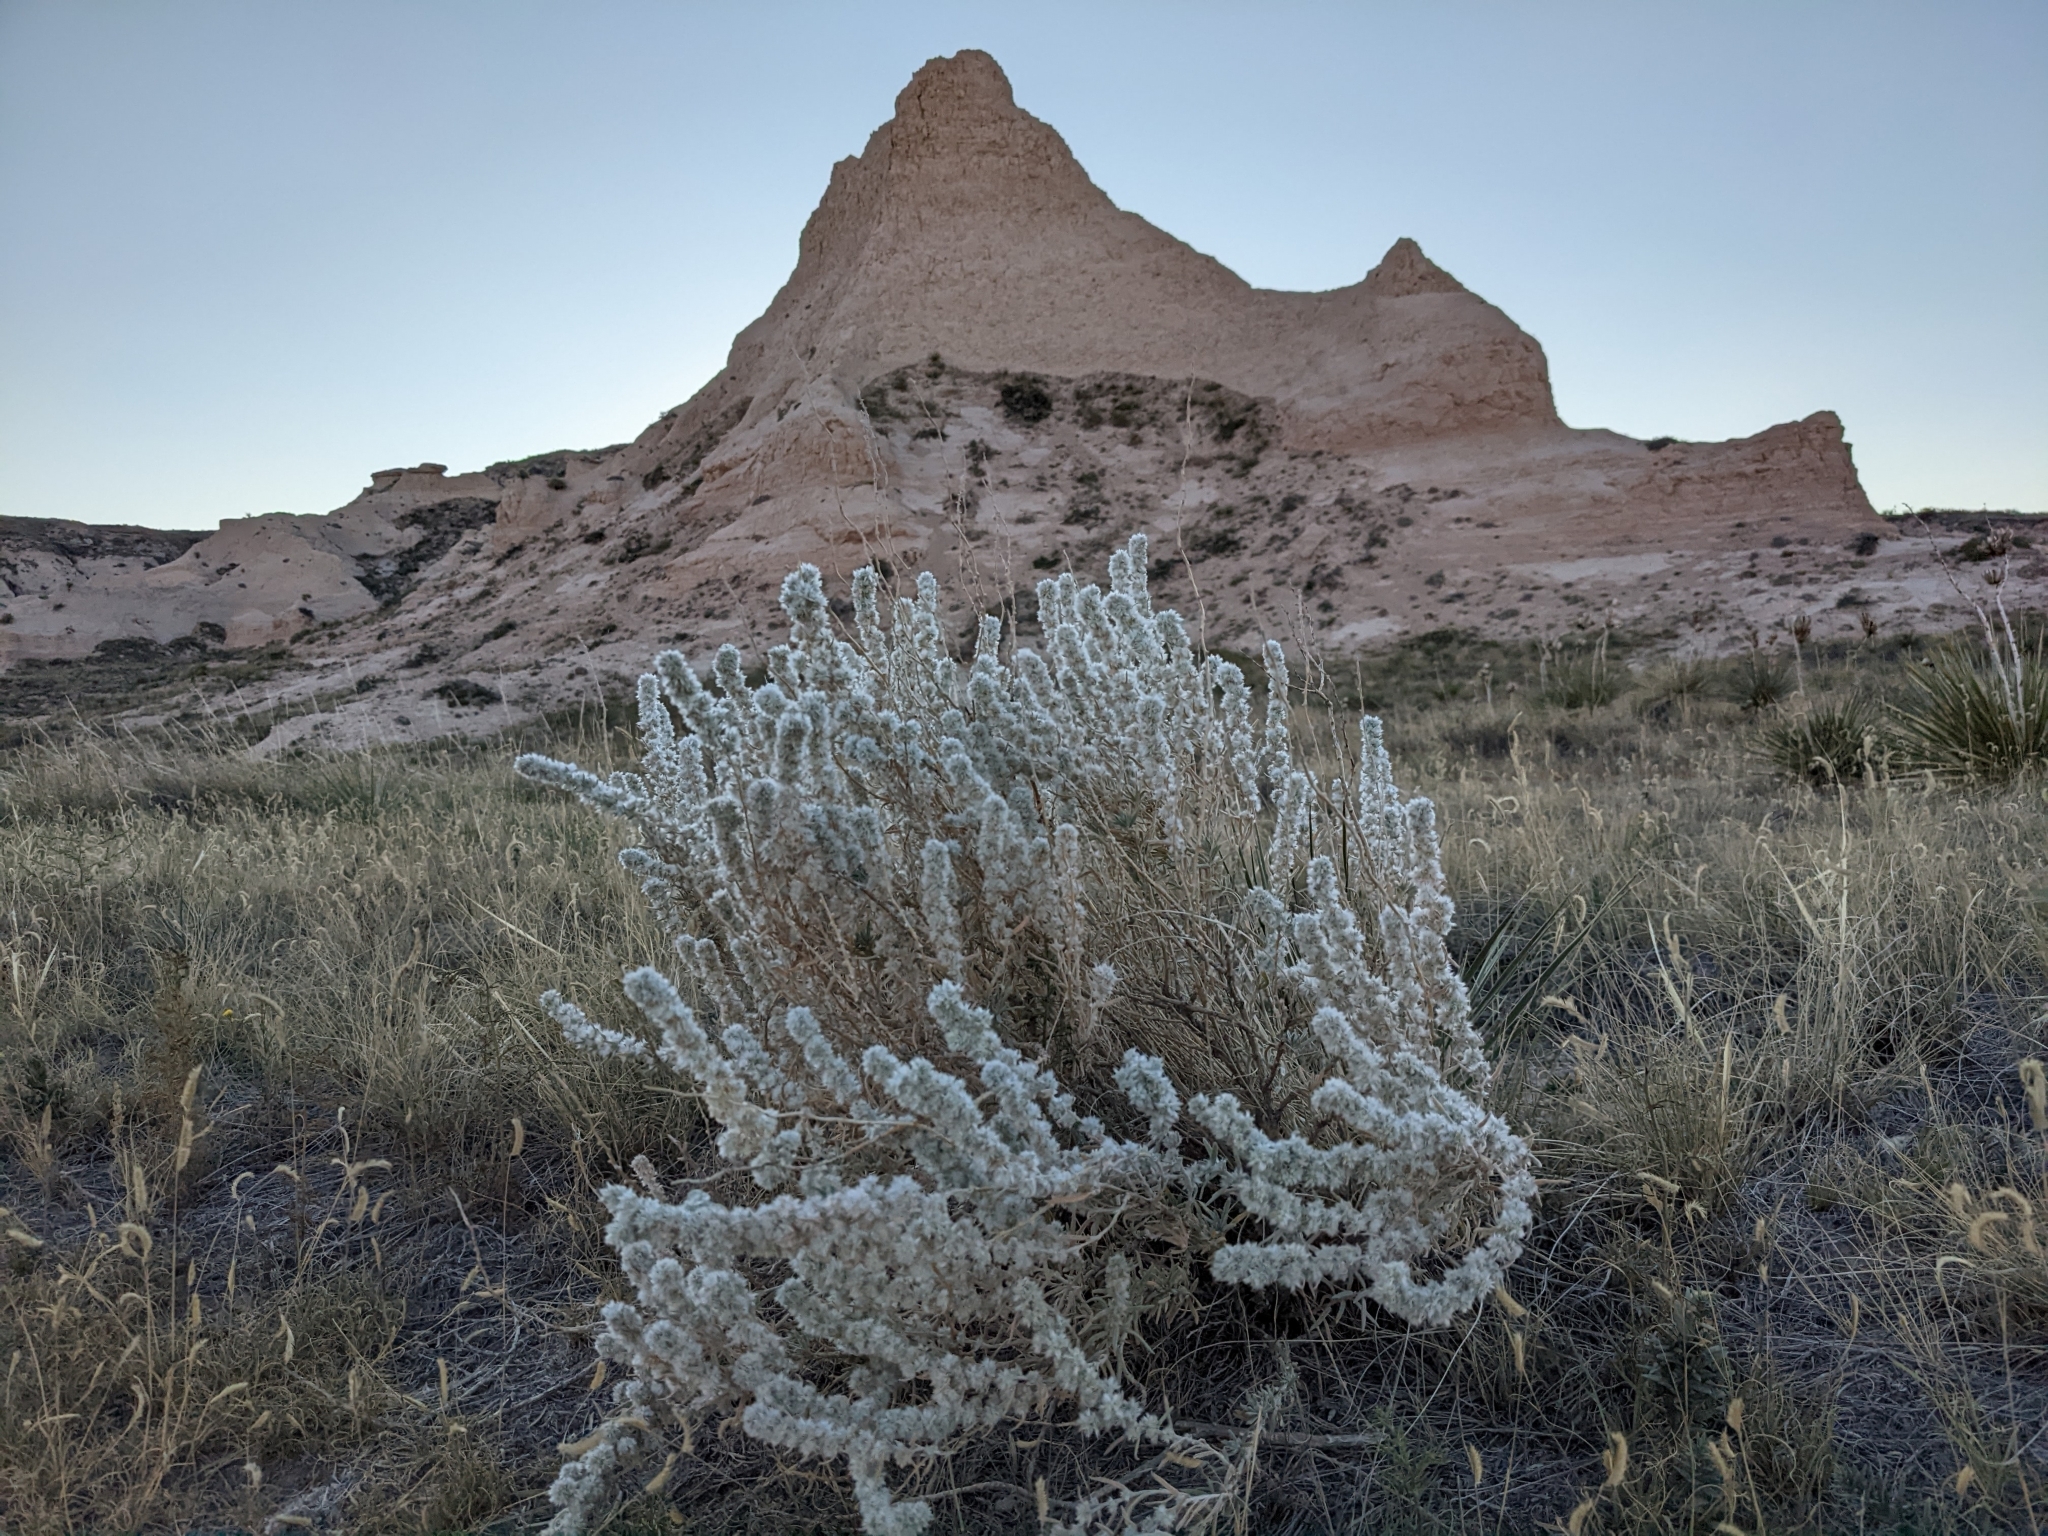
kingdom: Plantae
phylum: Tracheophyta
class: Magnoliopsida
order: Caryophyllales
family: Amaranthaceae
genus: Krascheninnikovia
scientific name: Krascheninnikovia lanata
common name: Winterfat
